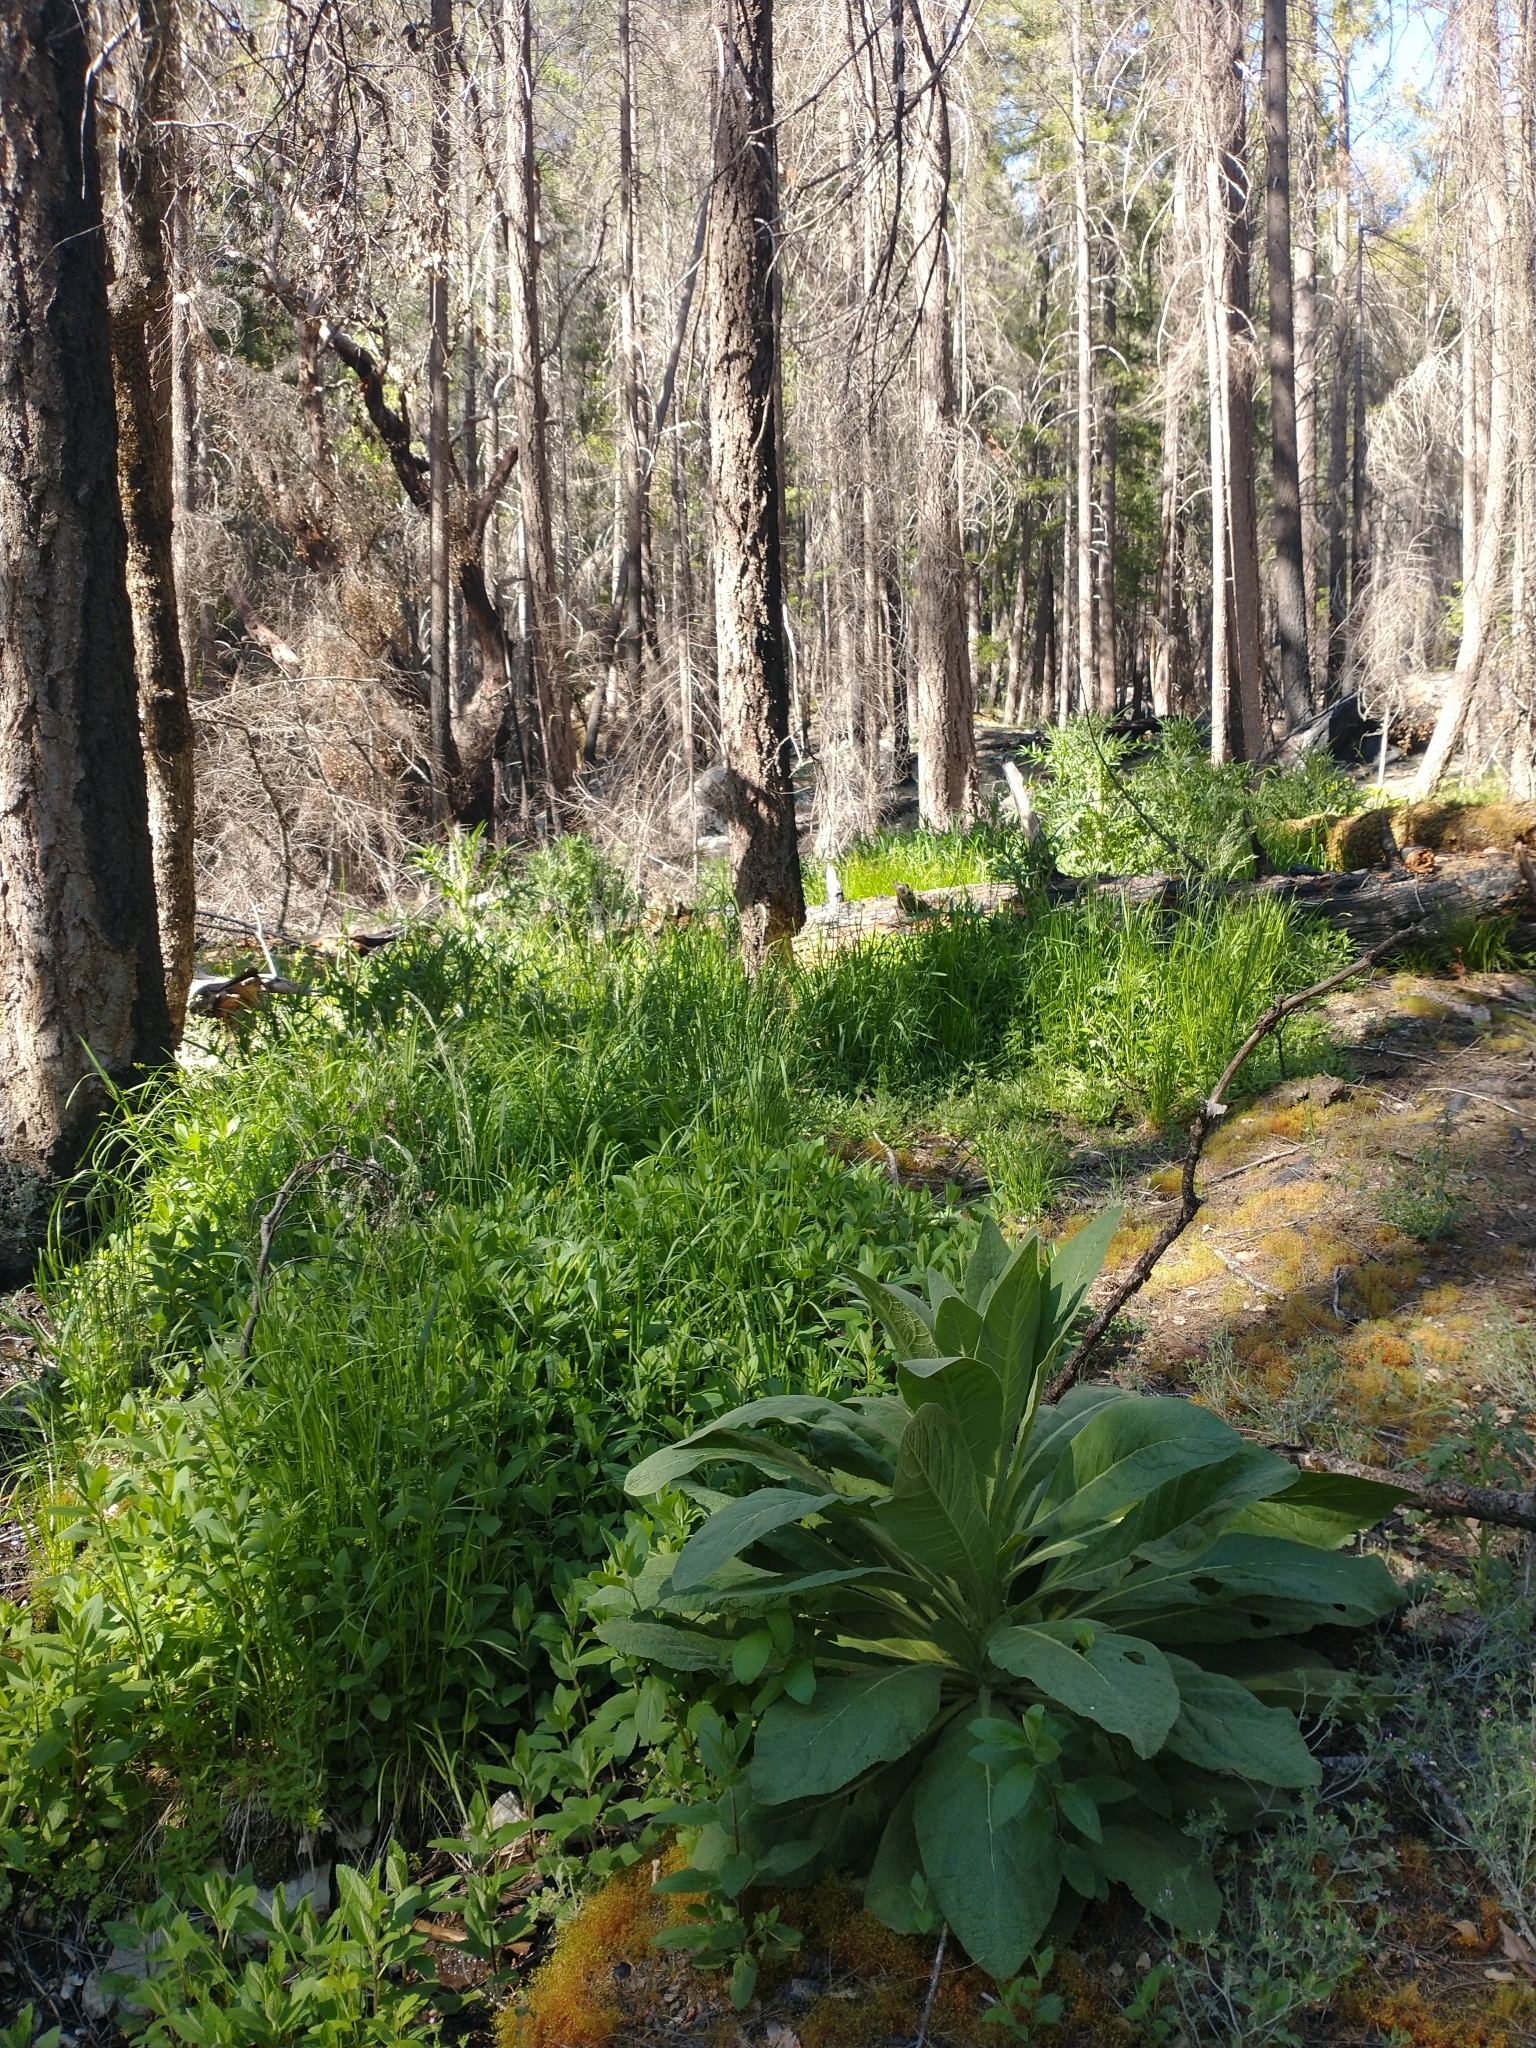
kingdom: Plantae
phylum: Tracheophyta
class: Magnoliopsida
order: Lamiales
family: Scrophulariaceae
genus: Verbascum
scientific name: Verbascum thapsus
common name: Common mullein
